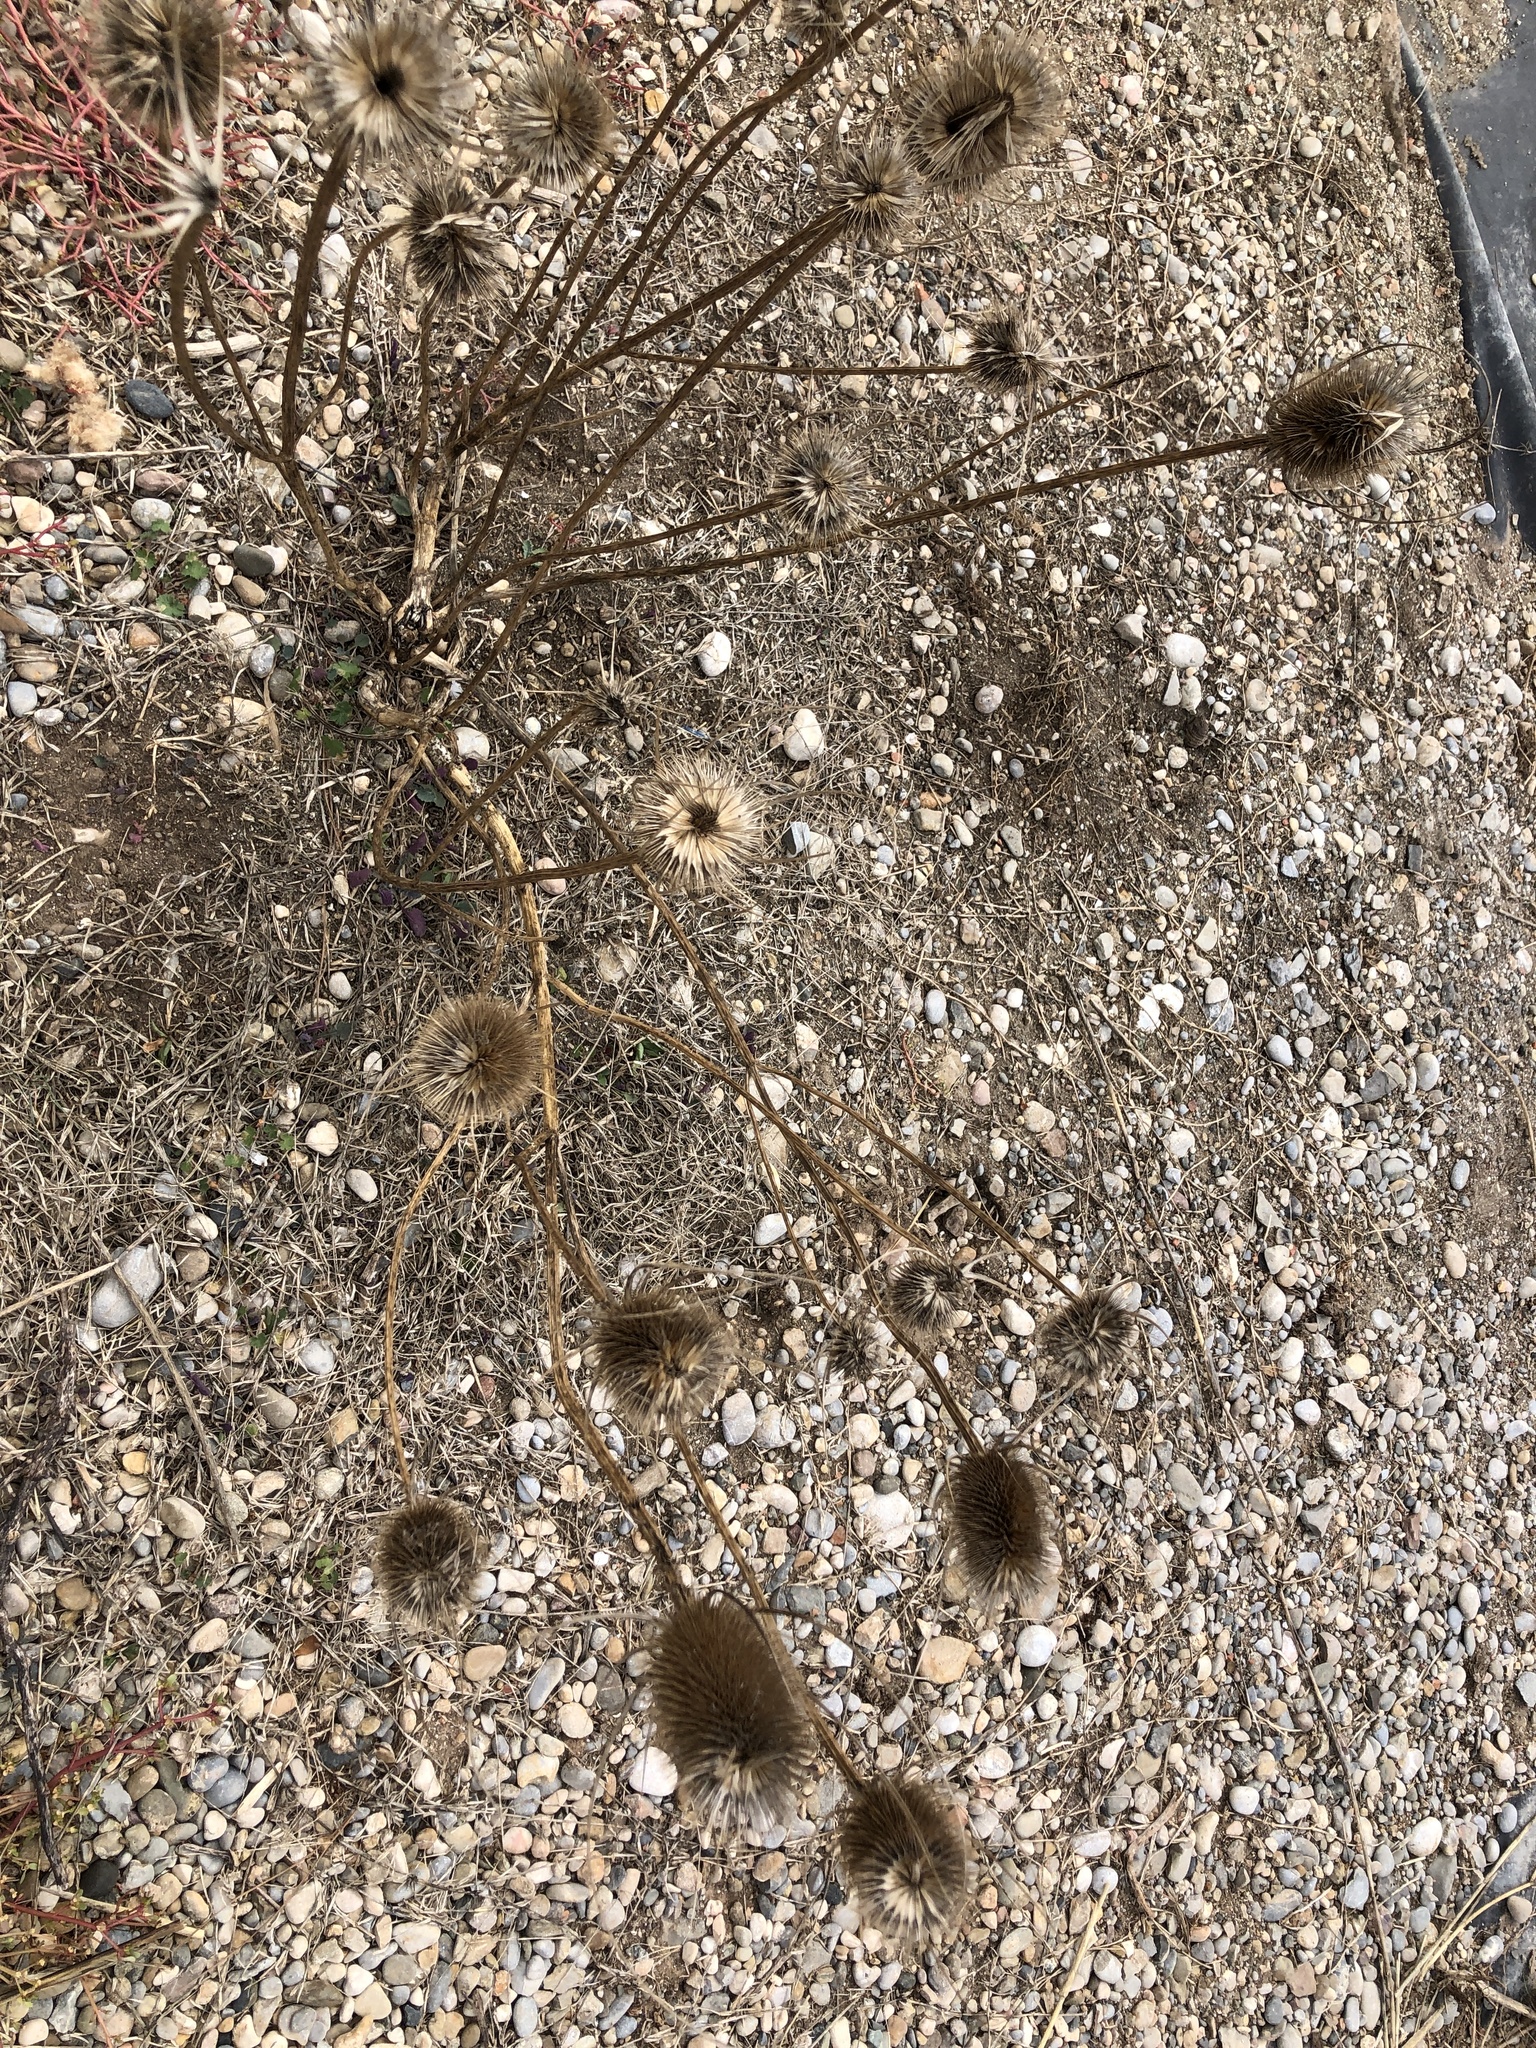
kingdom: Plantae
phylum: Tracheophyta
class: Magnoliopsida
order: Dipsacales
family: Caprifoliaceae
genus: Dipsacus
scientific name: Dipsacus fullonum
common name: Teasel
